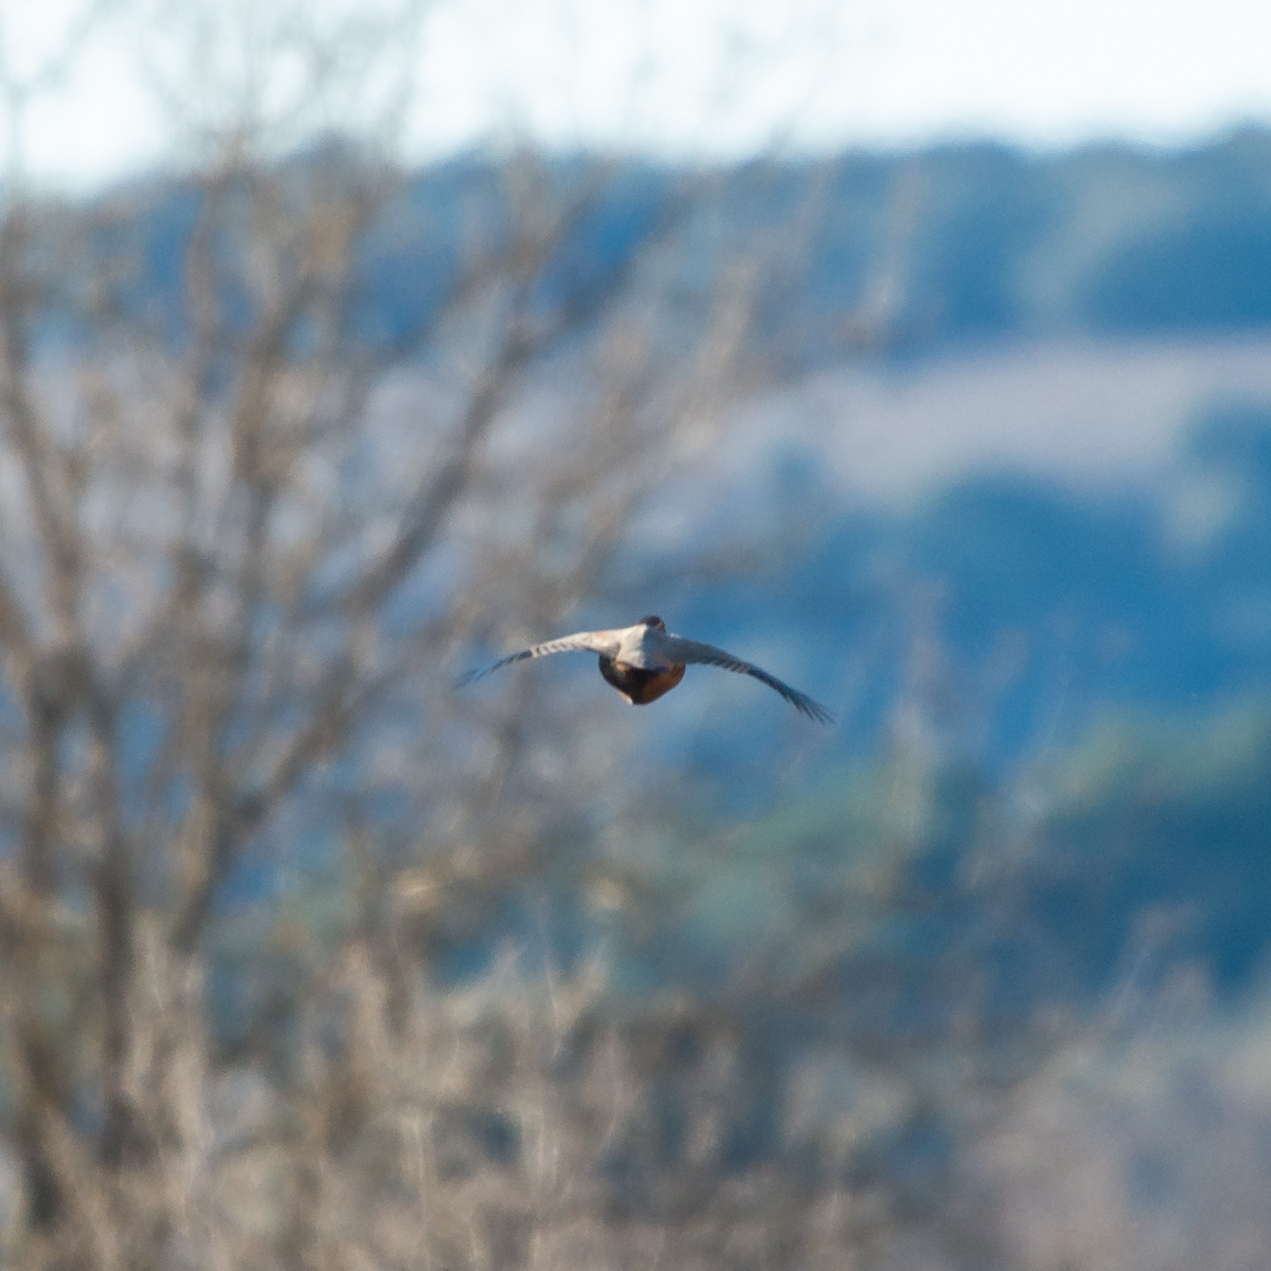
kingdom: Animalia
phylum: Chordata
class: Aves
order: Galliformes
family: Phasianidae
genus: Alectoris
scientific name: Alectoris rufa
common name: Red-legged partridge
